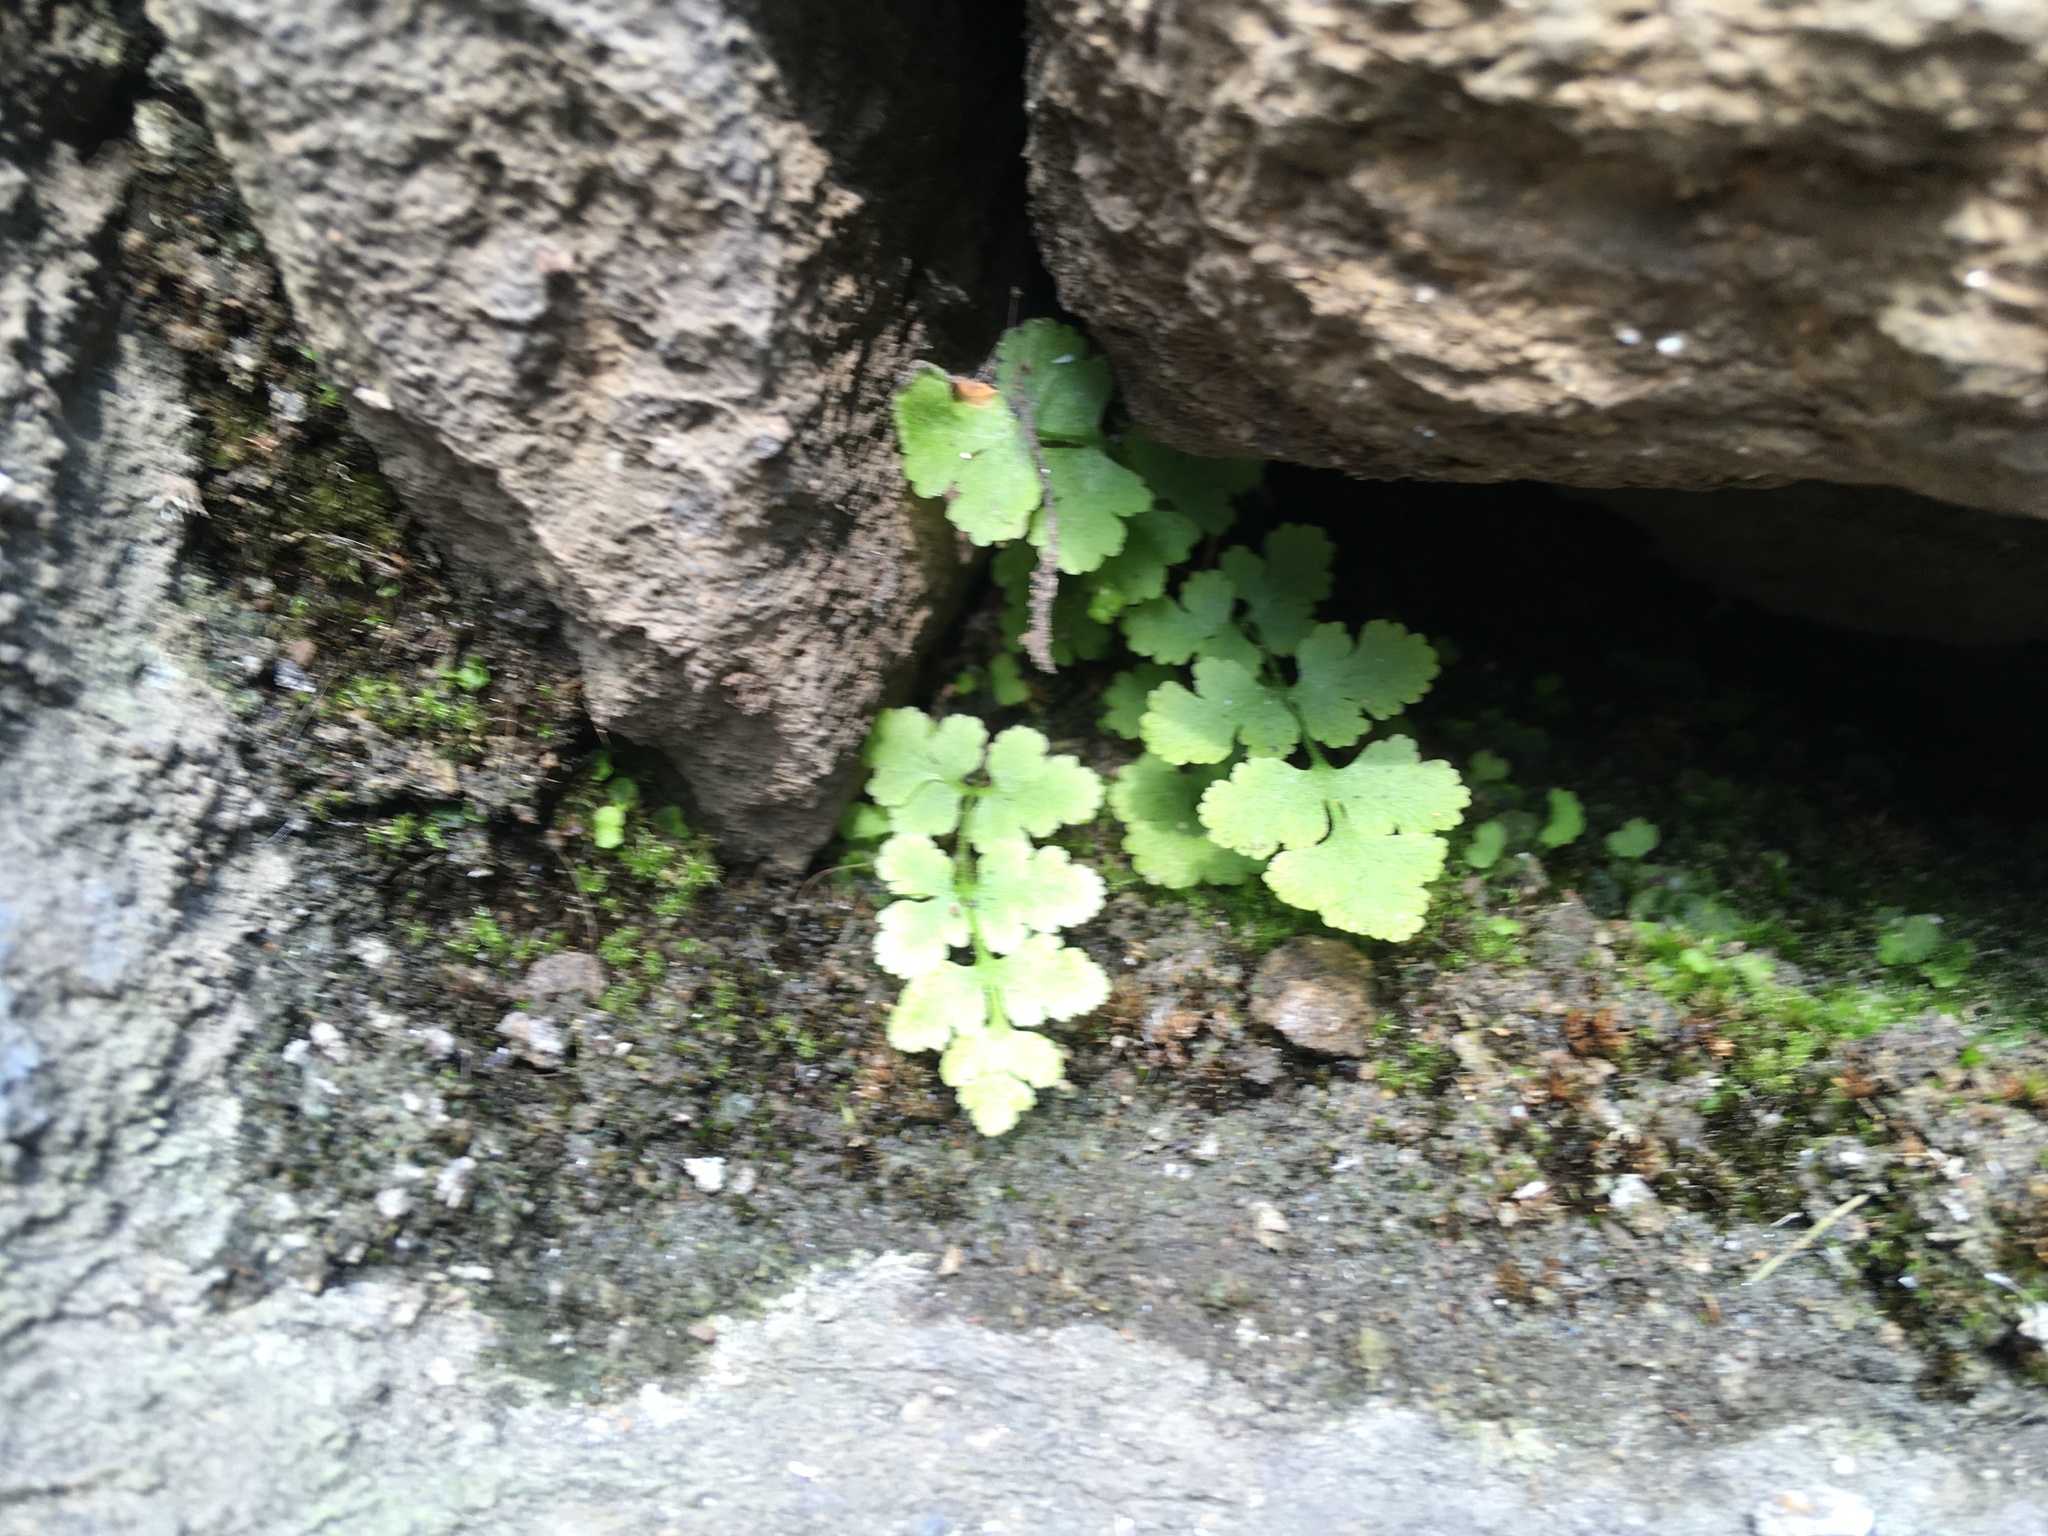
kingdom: Plantae
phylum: Tracheophyta
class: Polypodiopsida
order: Polypodiales
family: Woodsiaceae
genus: Physematium
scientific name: Physematium obtusum
